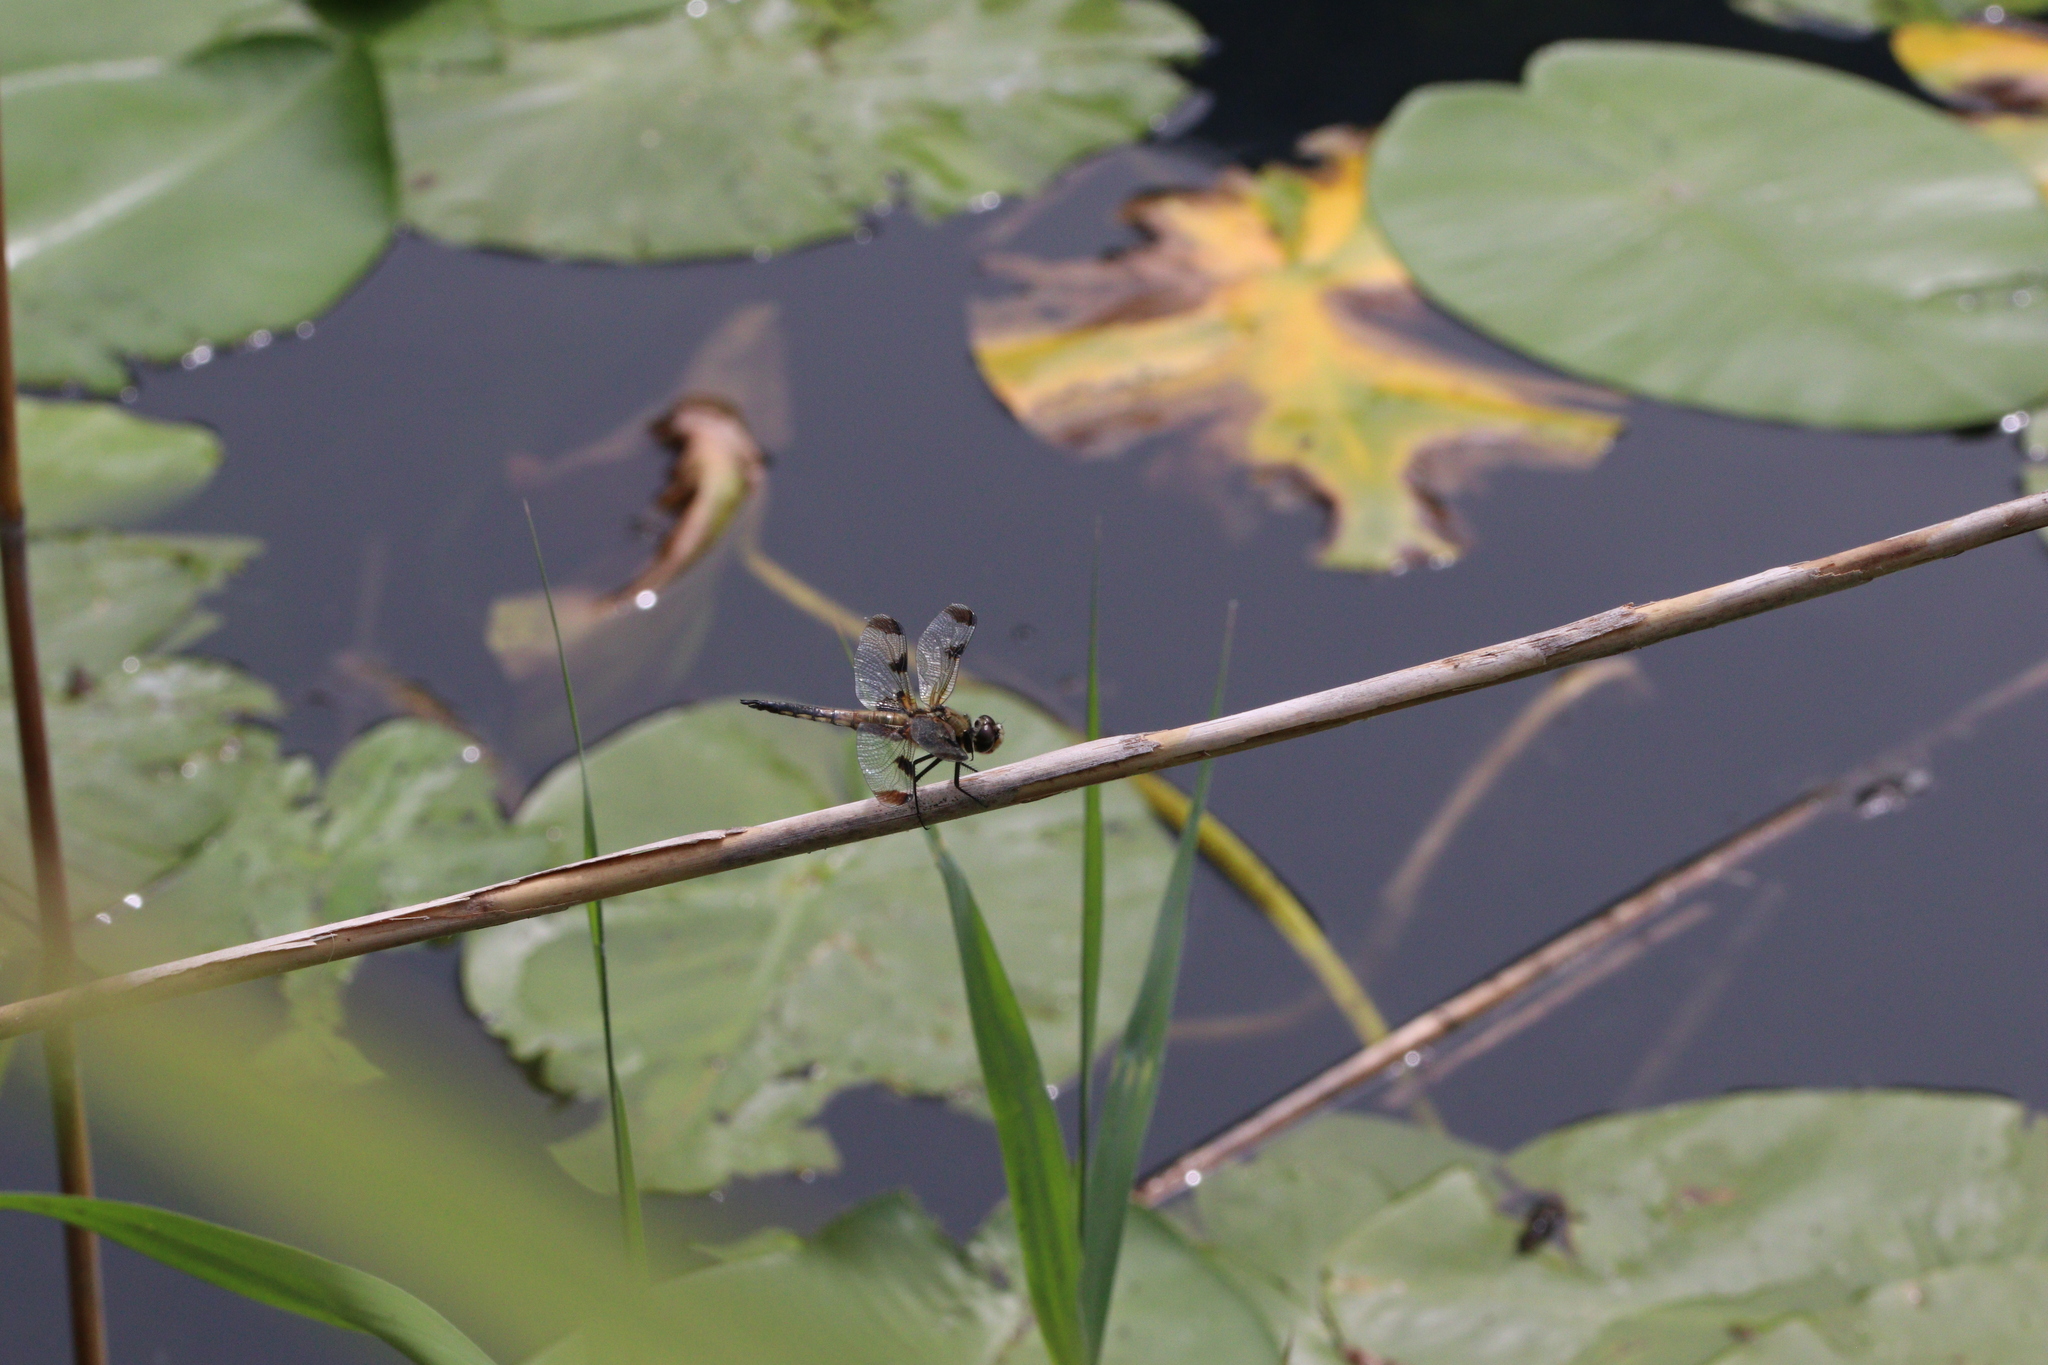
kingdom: Animalia
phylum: Arthropoda
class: Insecta
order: Odonata
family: Libellulidae
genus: Libellula
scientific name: Libellula quadrimaculata
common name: Four-spotted chaser
